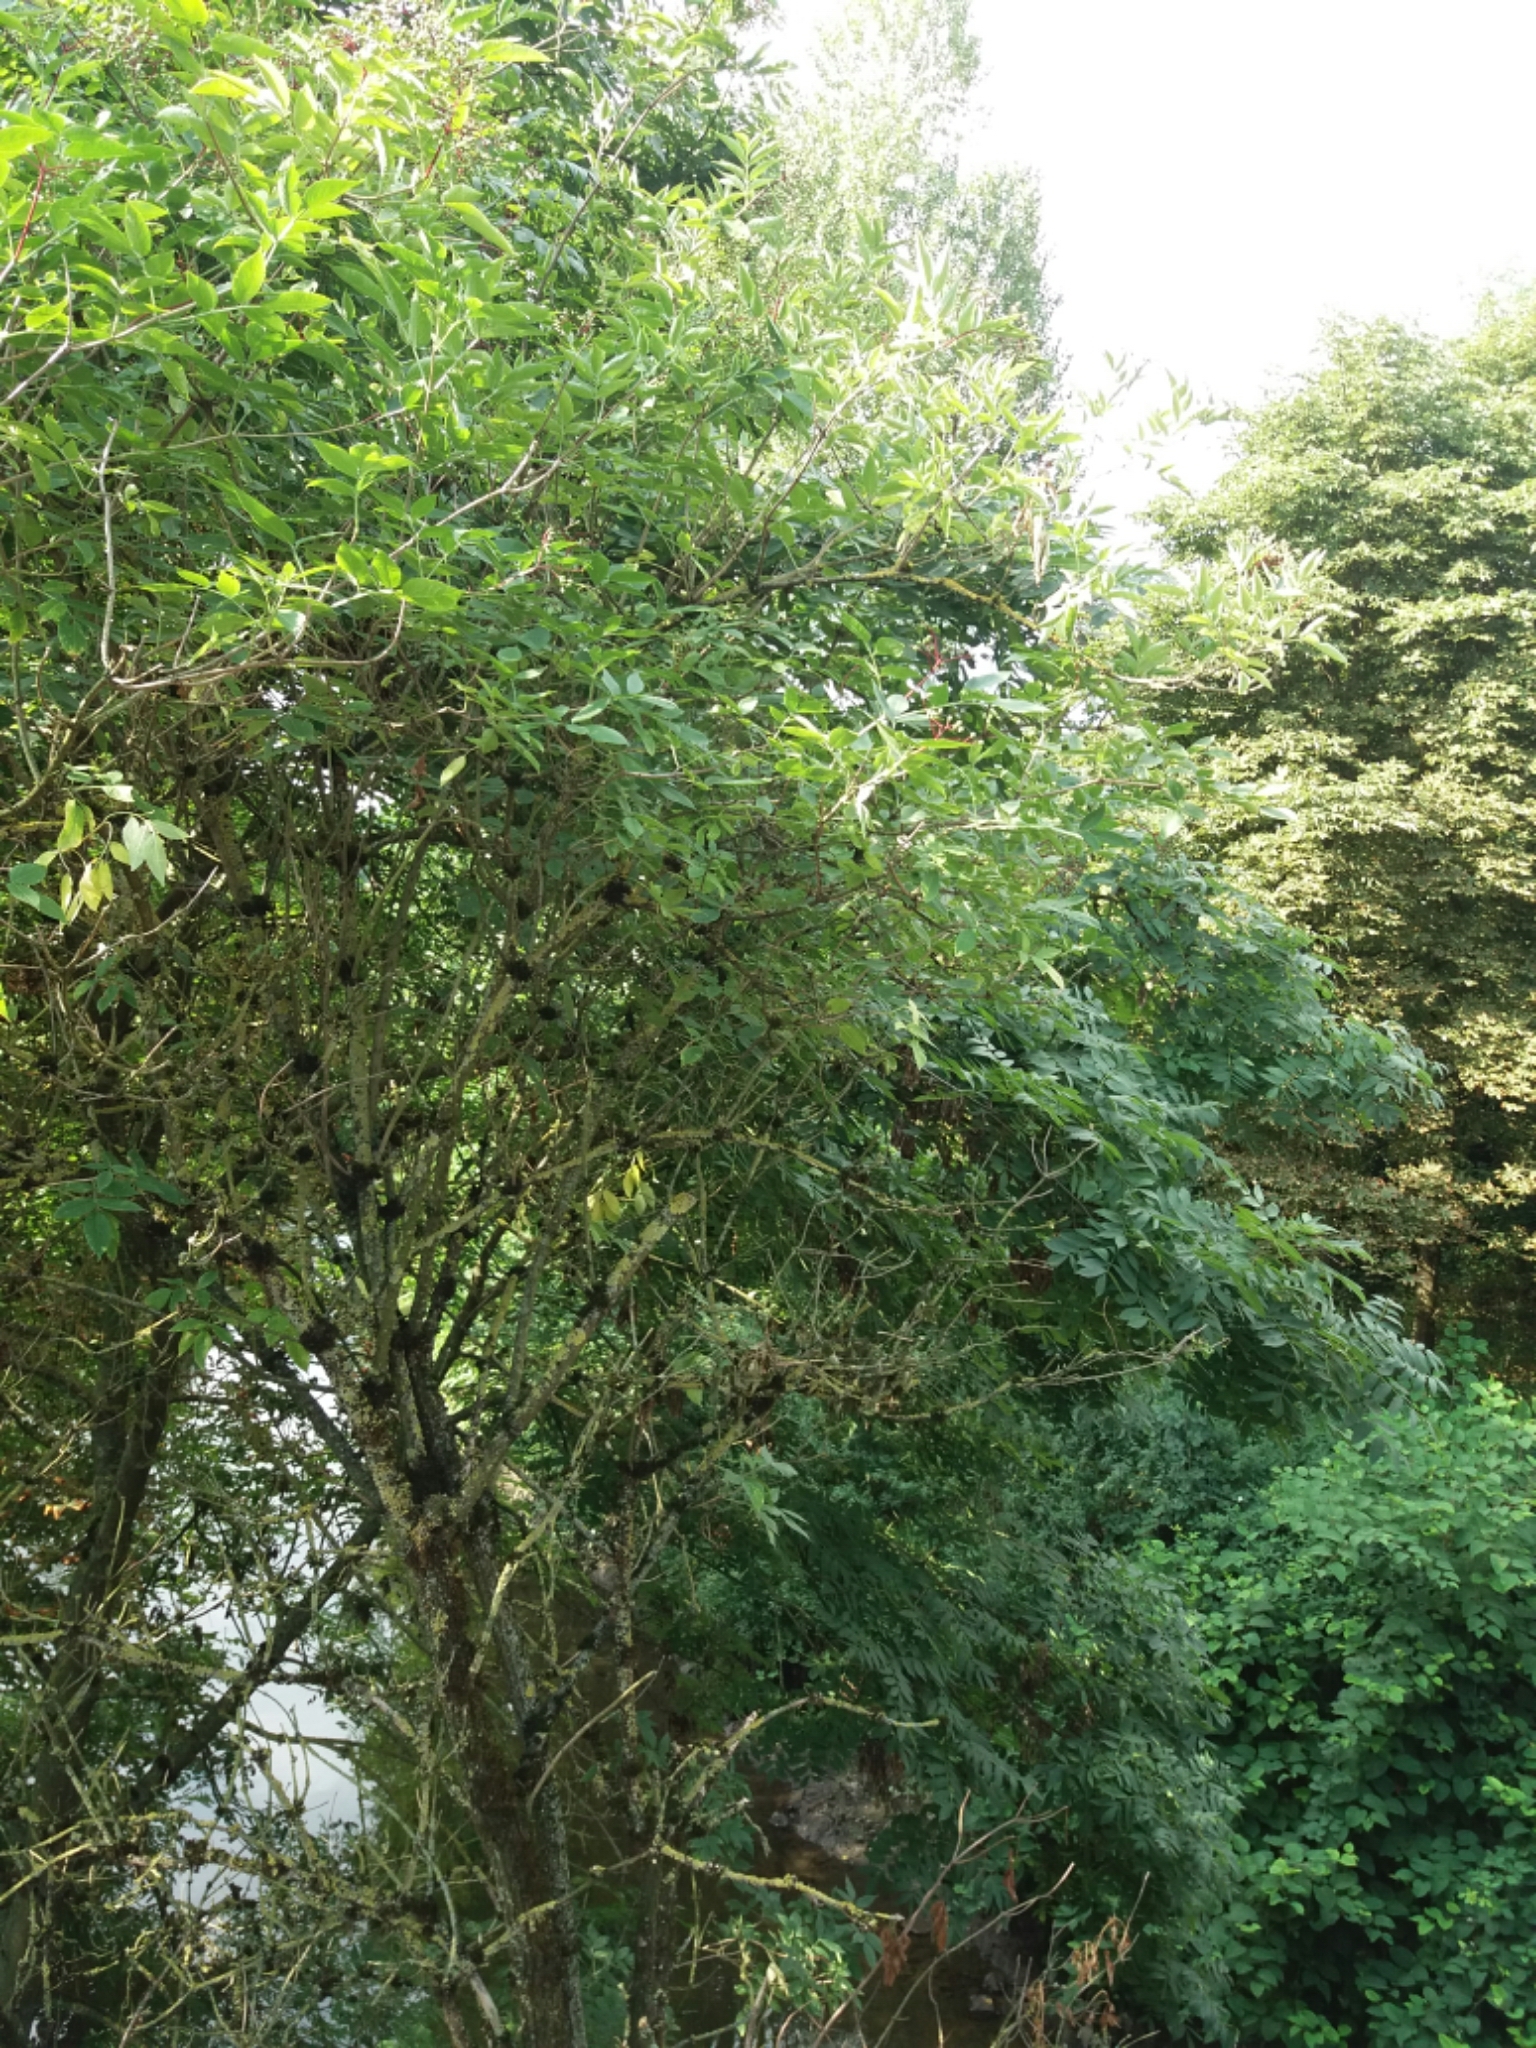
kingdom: Plantae
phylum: Tracheophyta
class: Magnoliopsida
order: Dipsacales
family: Viburnaceae
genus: Sambucus
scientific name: Sambucus nigra
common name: Elder
